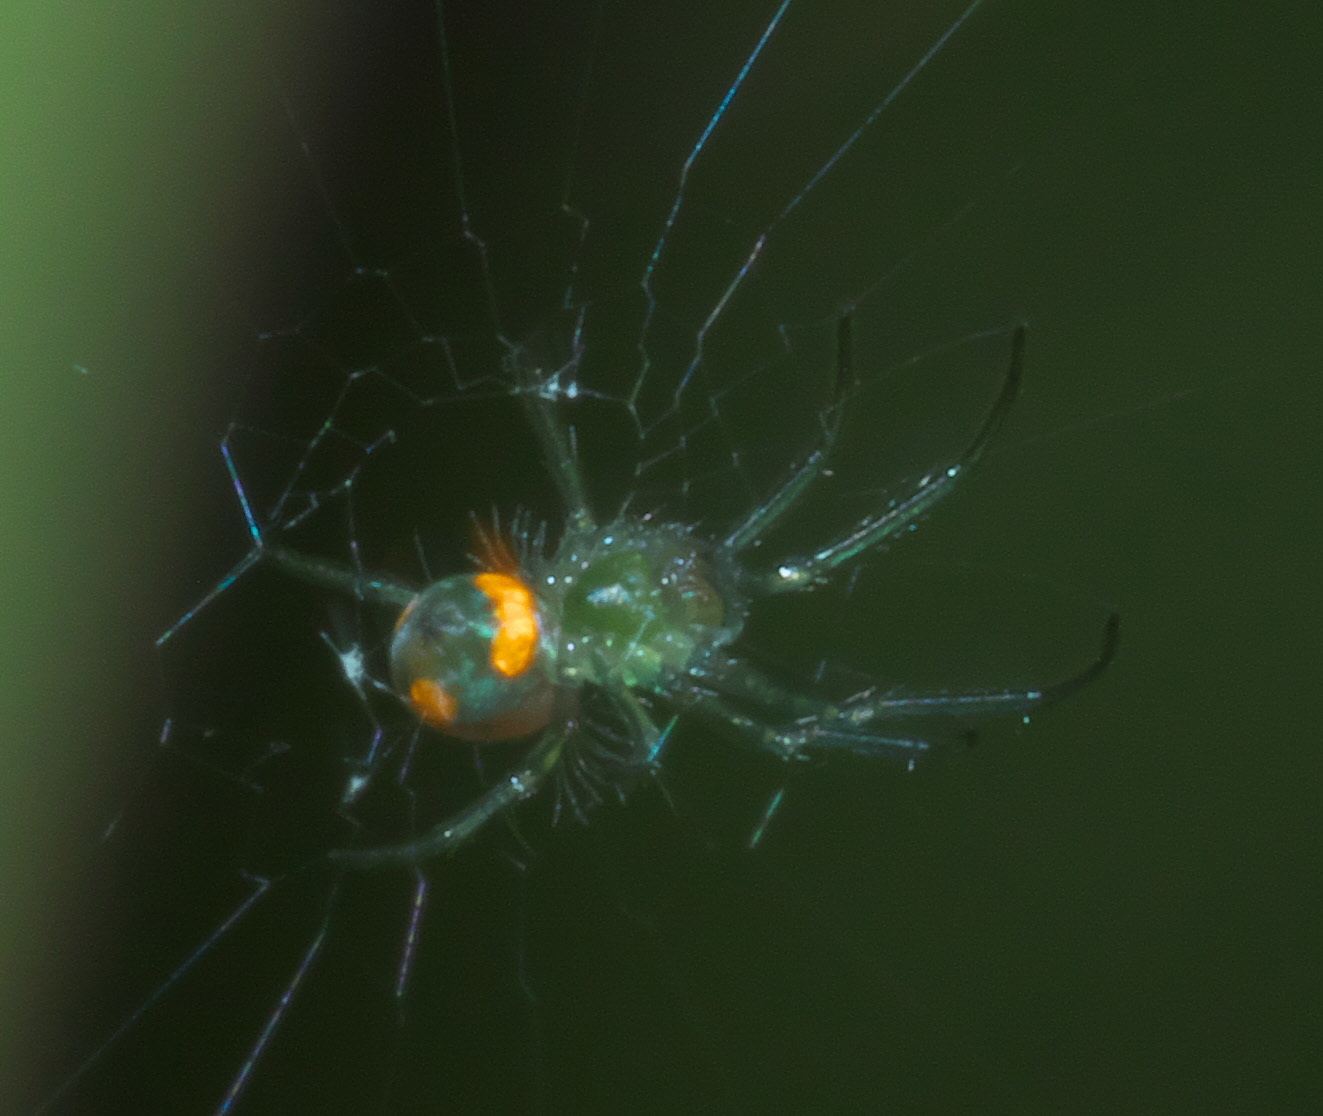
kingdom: Animalia
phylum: Arthropoda
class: Arachnida
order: Araneae
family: Tetragnathidae
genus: Leucauge
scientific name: Leucauge
